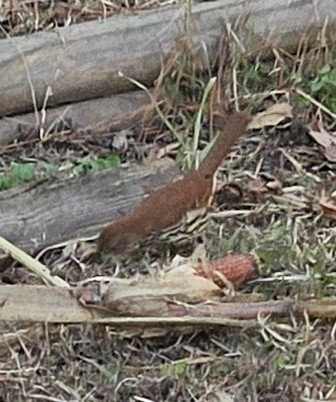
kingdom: Animalia
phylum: Chordata
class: Aves
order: Passeriformes
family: Mimidae
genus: Toxostoma
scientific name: Toxostoma rufum
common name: Brown thrasher
